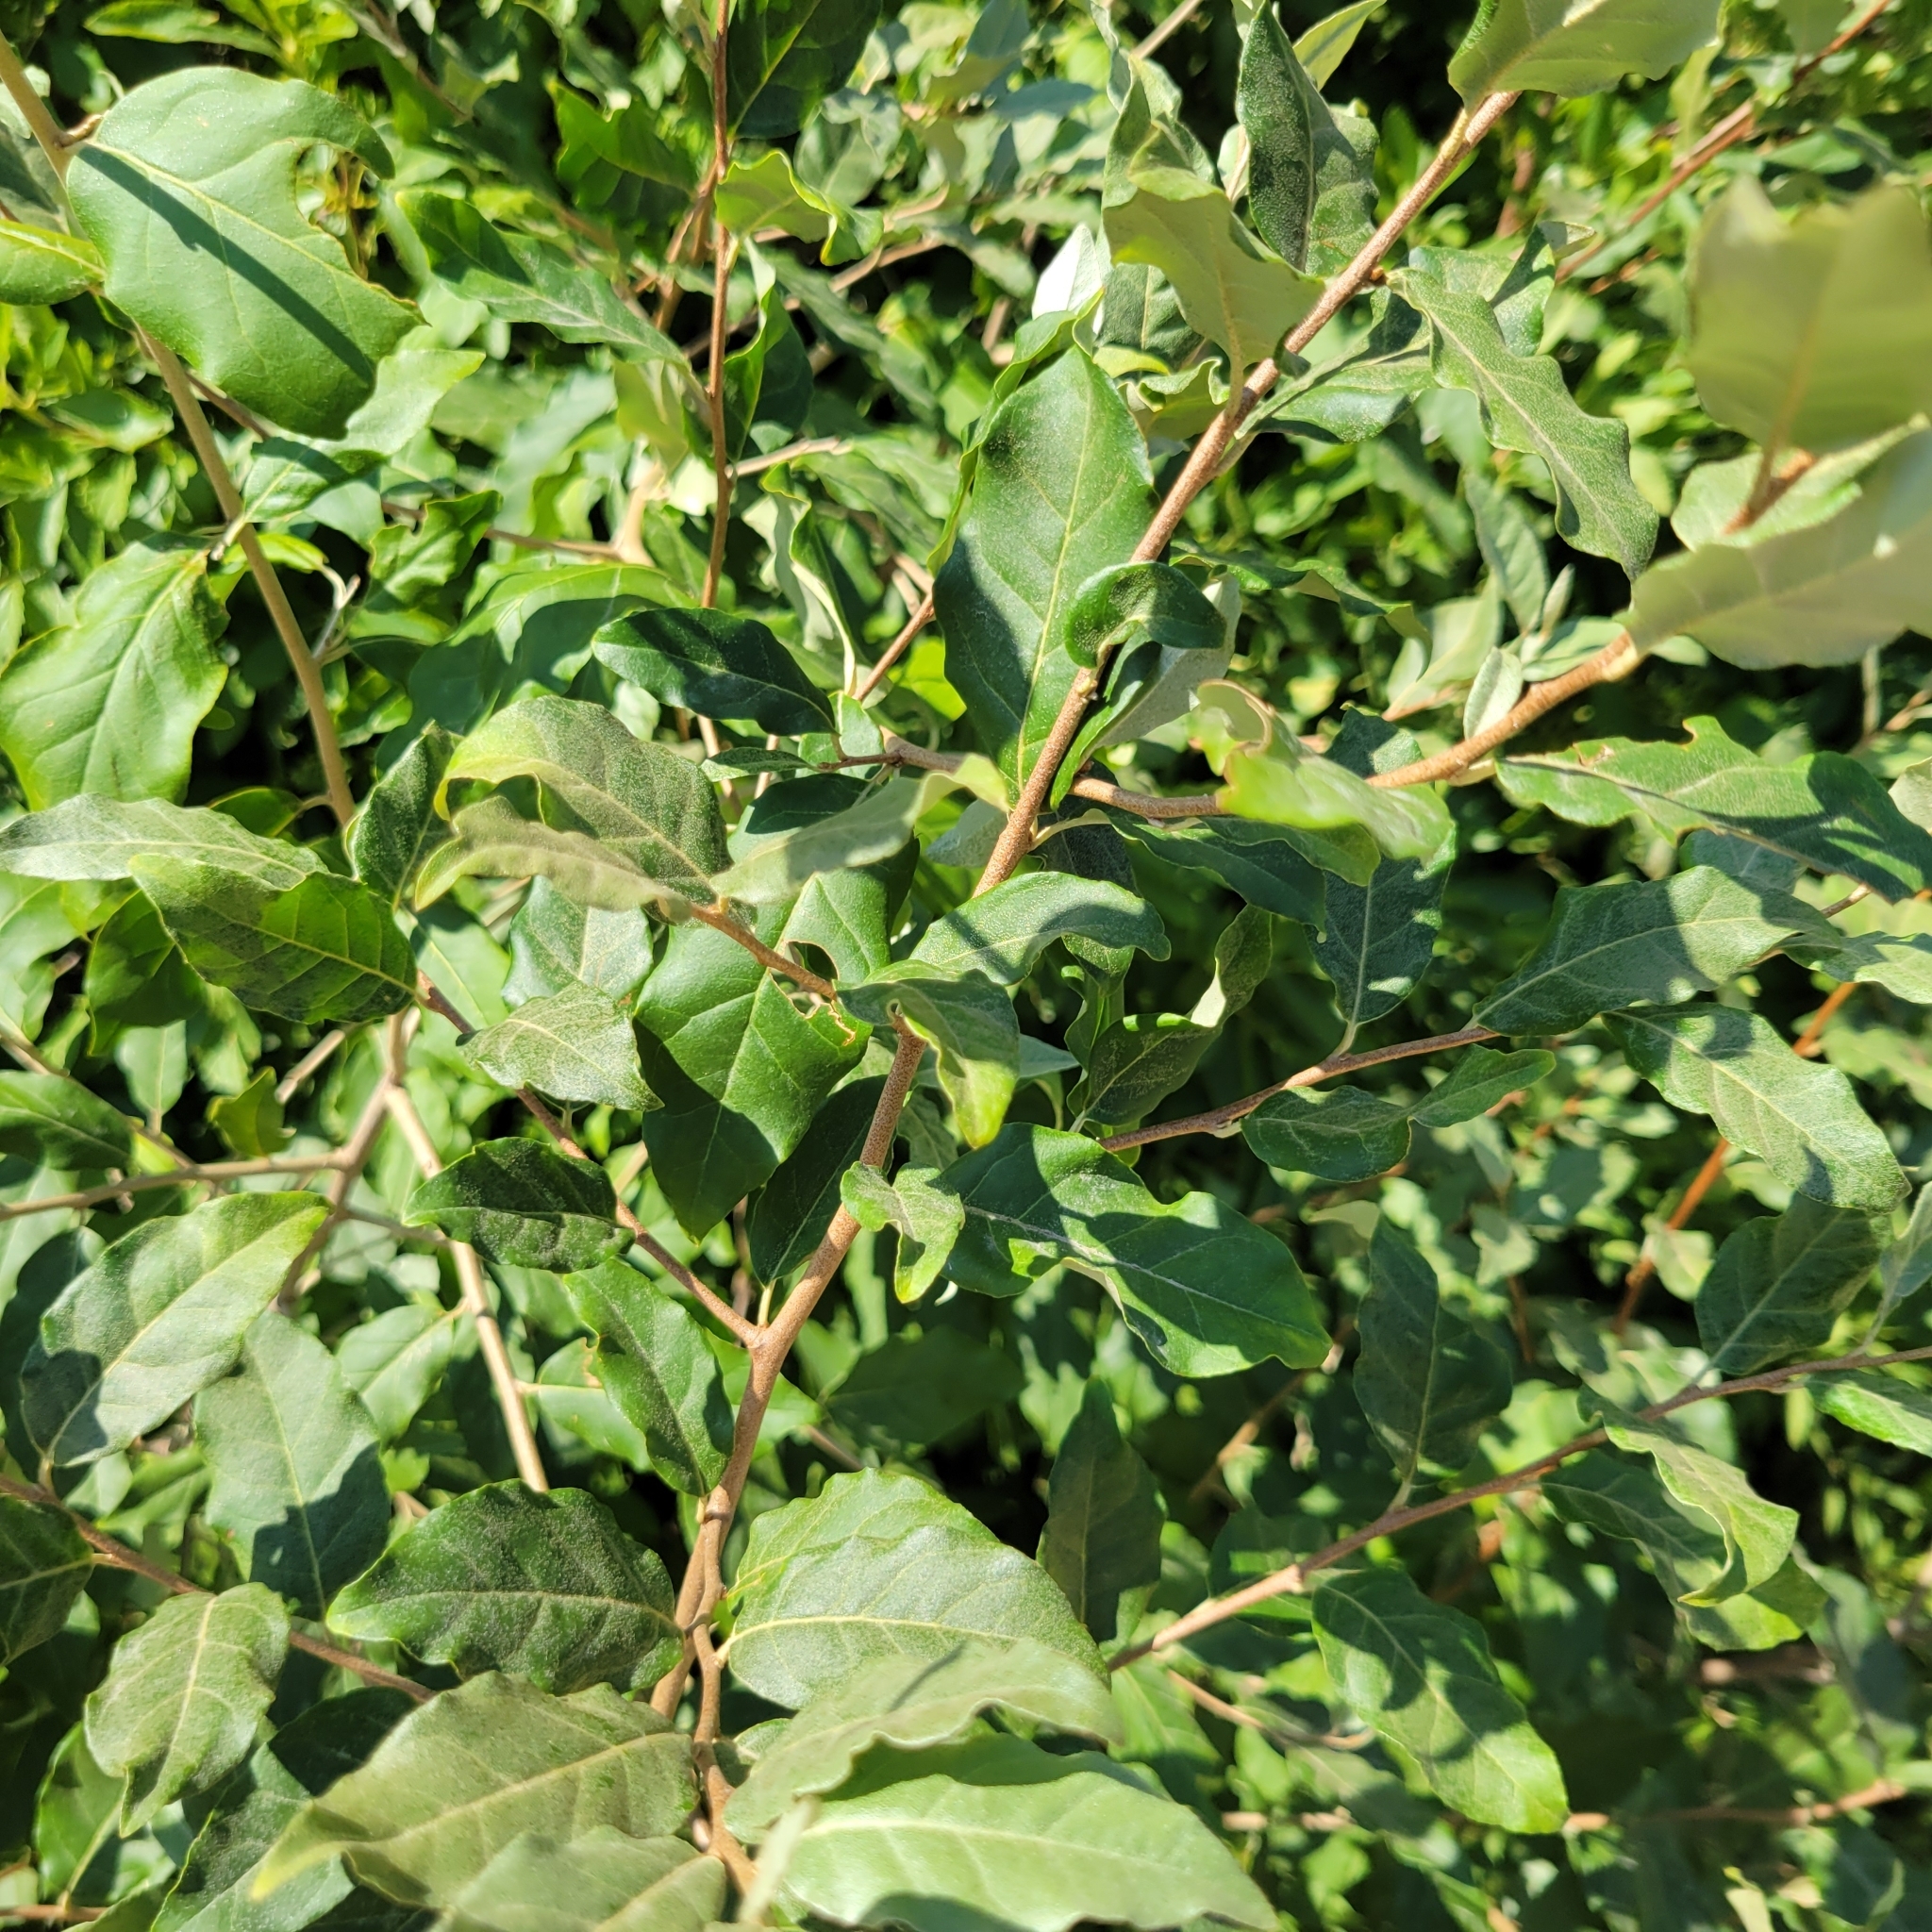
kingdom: Plantae
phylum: Tracheophyta
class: Magnoliopsida
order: Rosales
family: Elaeagnaceae
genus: Elaeagnus
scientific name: Elaeagnus umbellata
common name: Autumn olive
